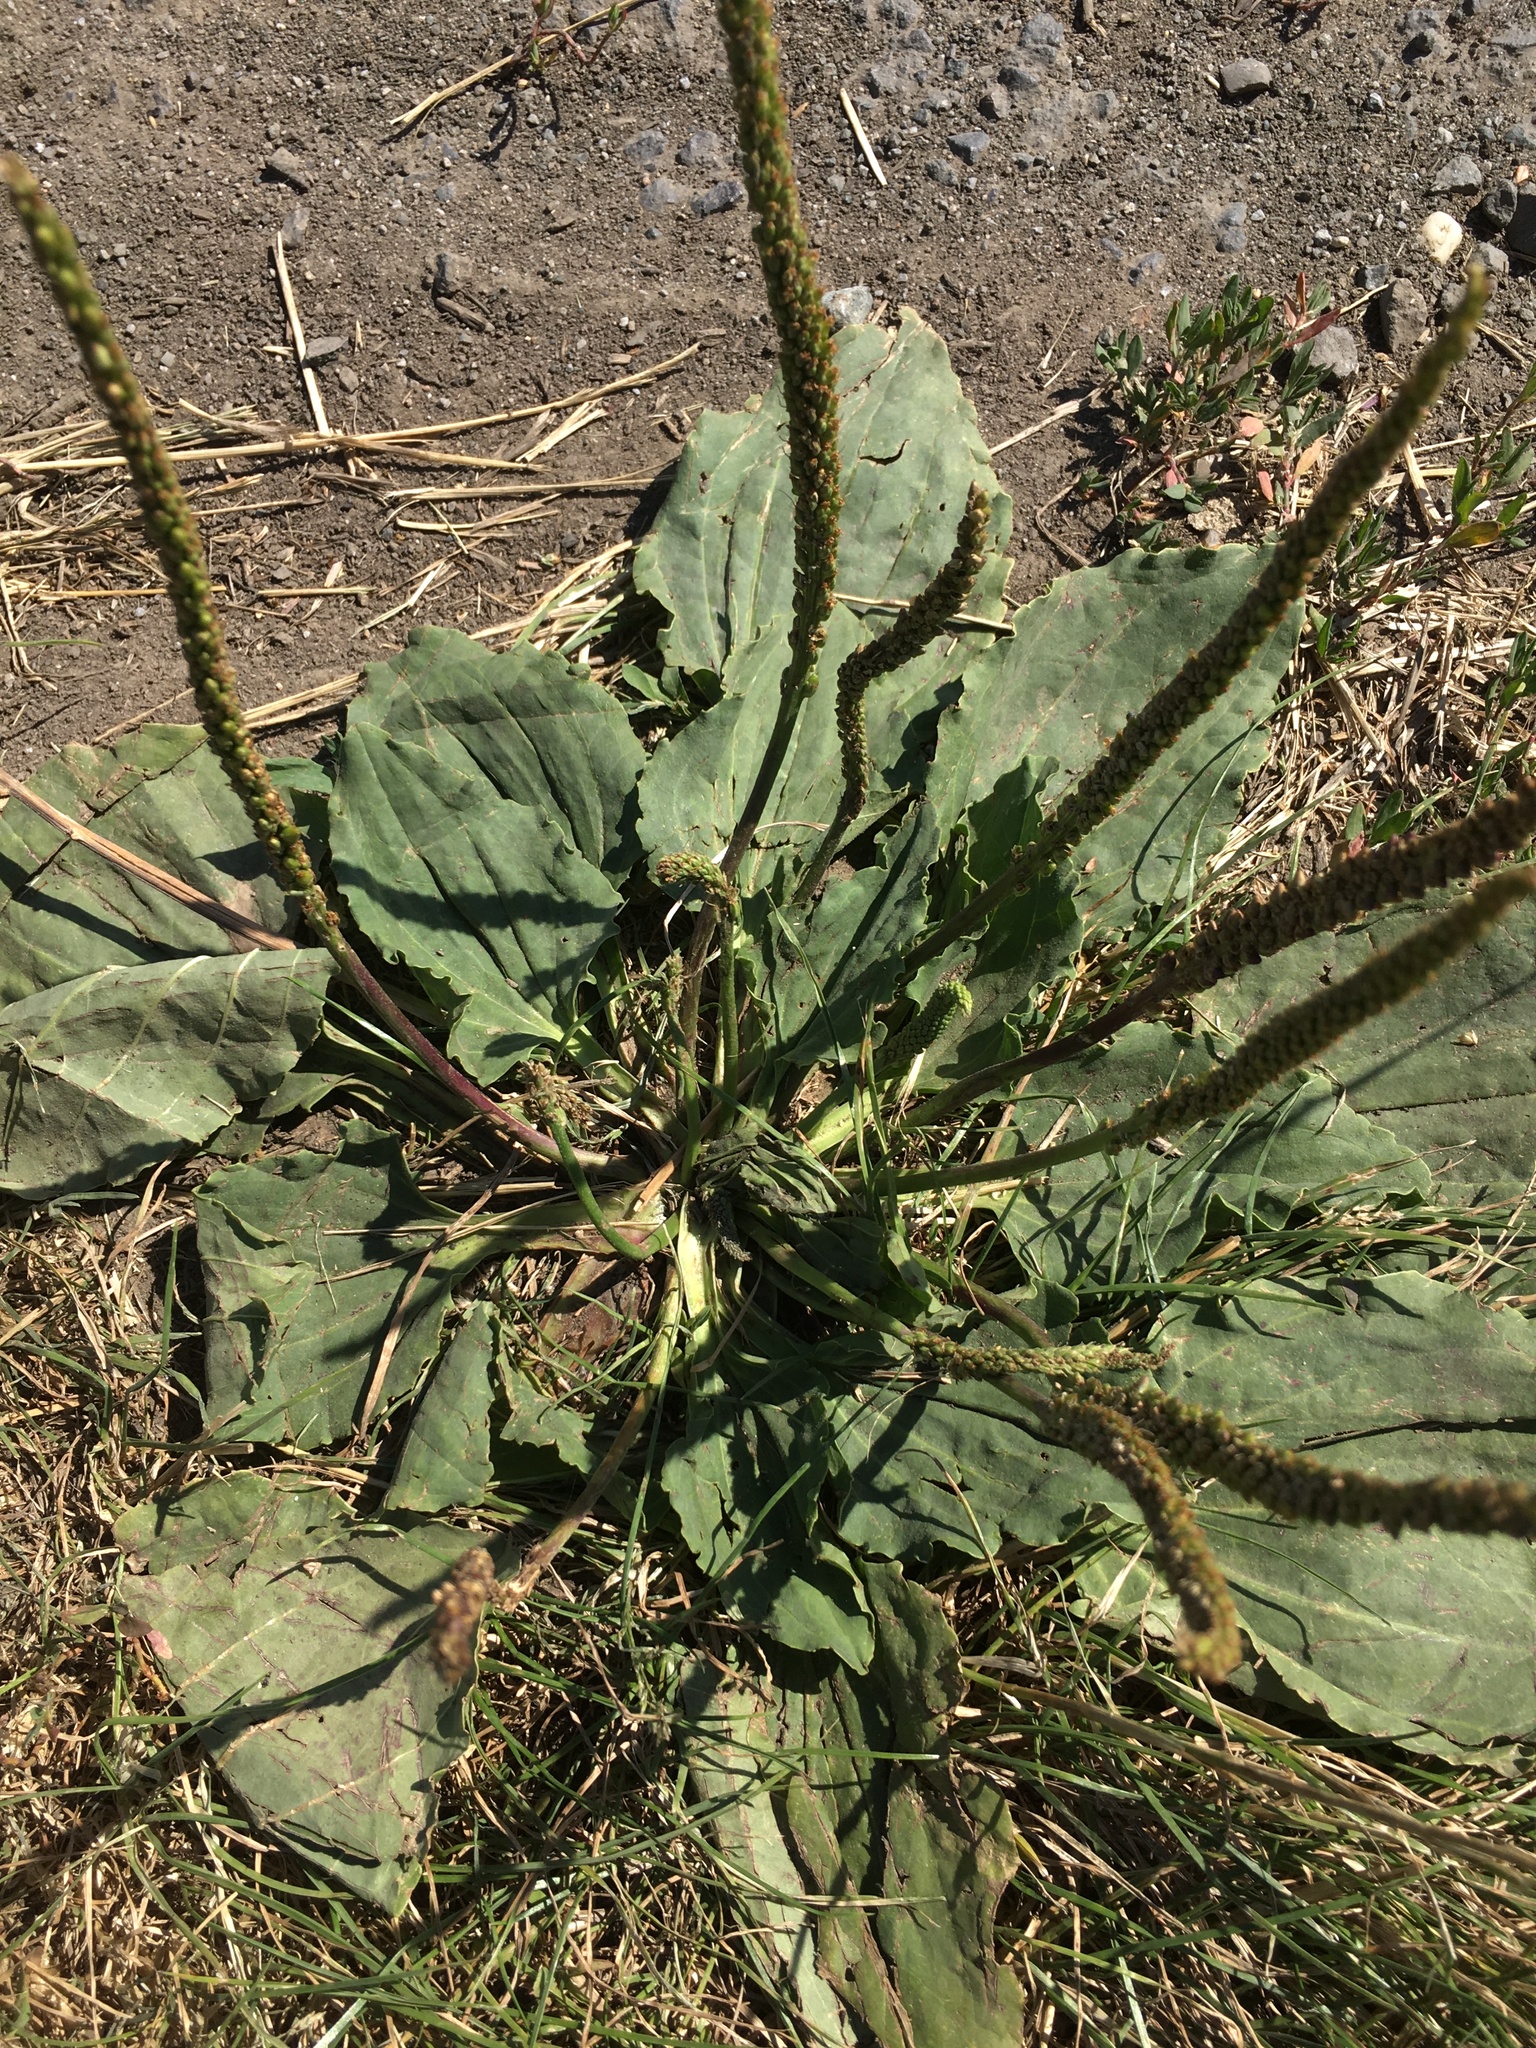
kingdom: Plantae
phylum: Tracheophyta
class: Magnoliopsida
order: Lamiales
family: Plantaginaceae
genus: Plantago
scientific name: Plantago major
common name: Common plantain
